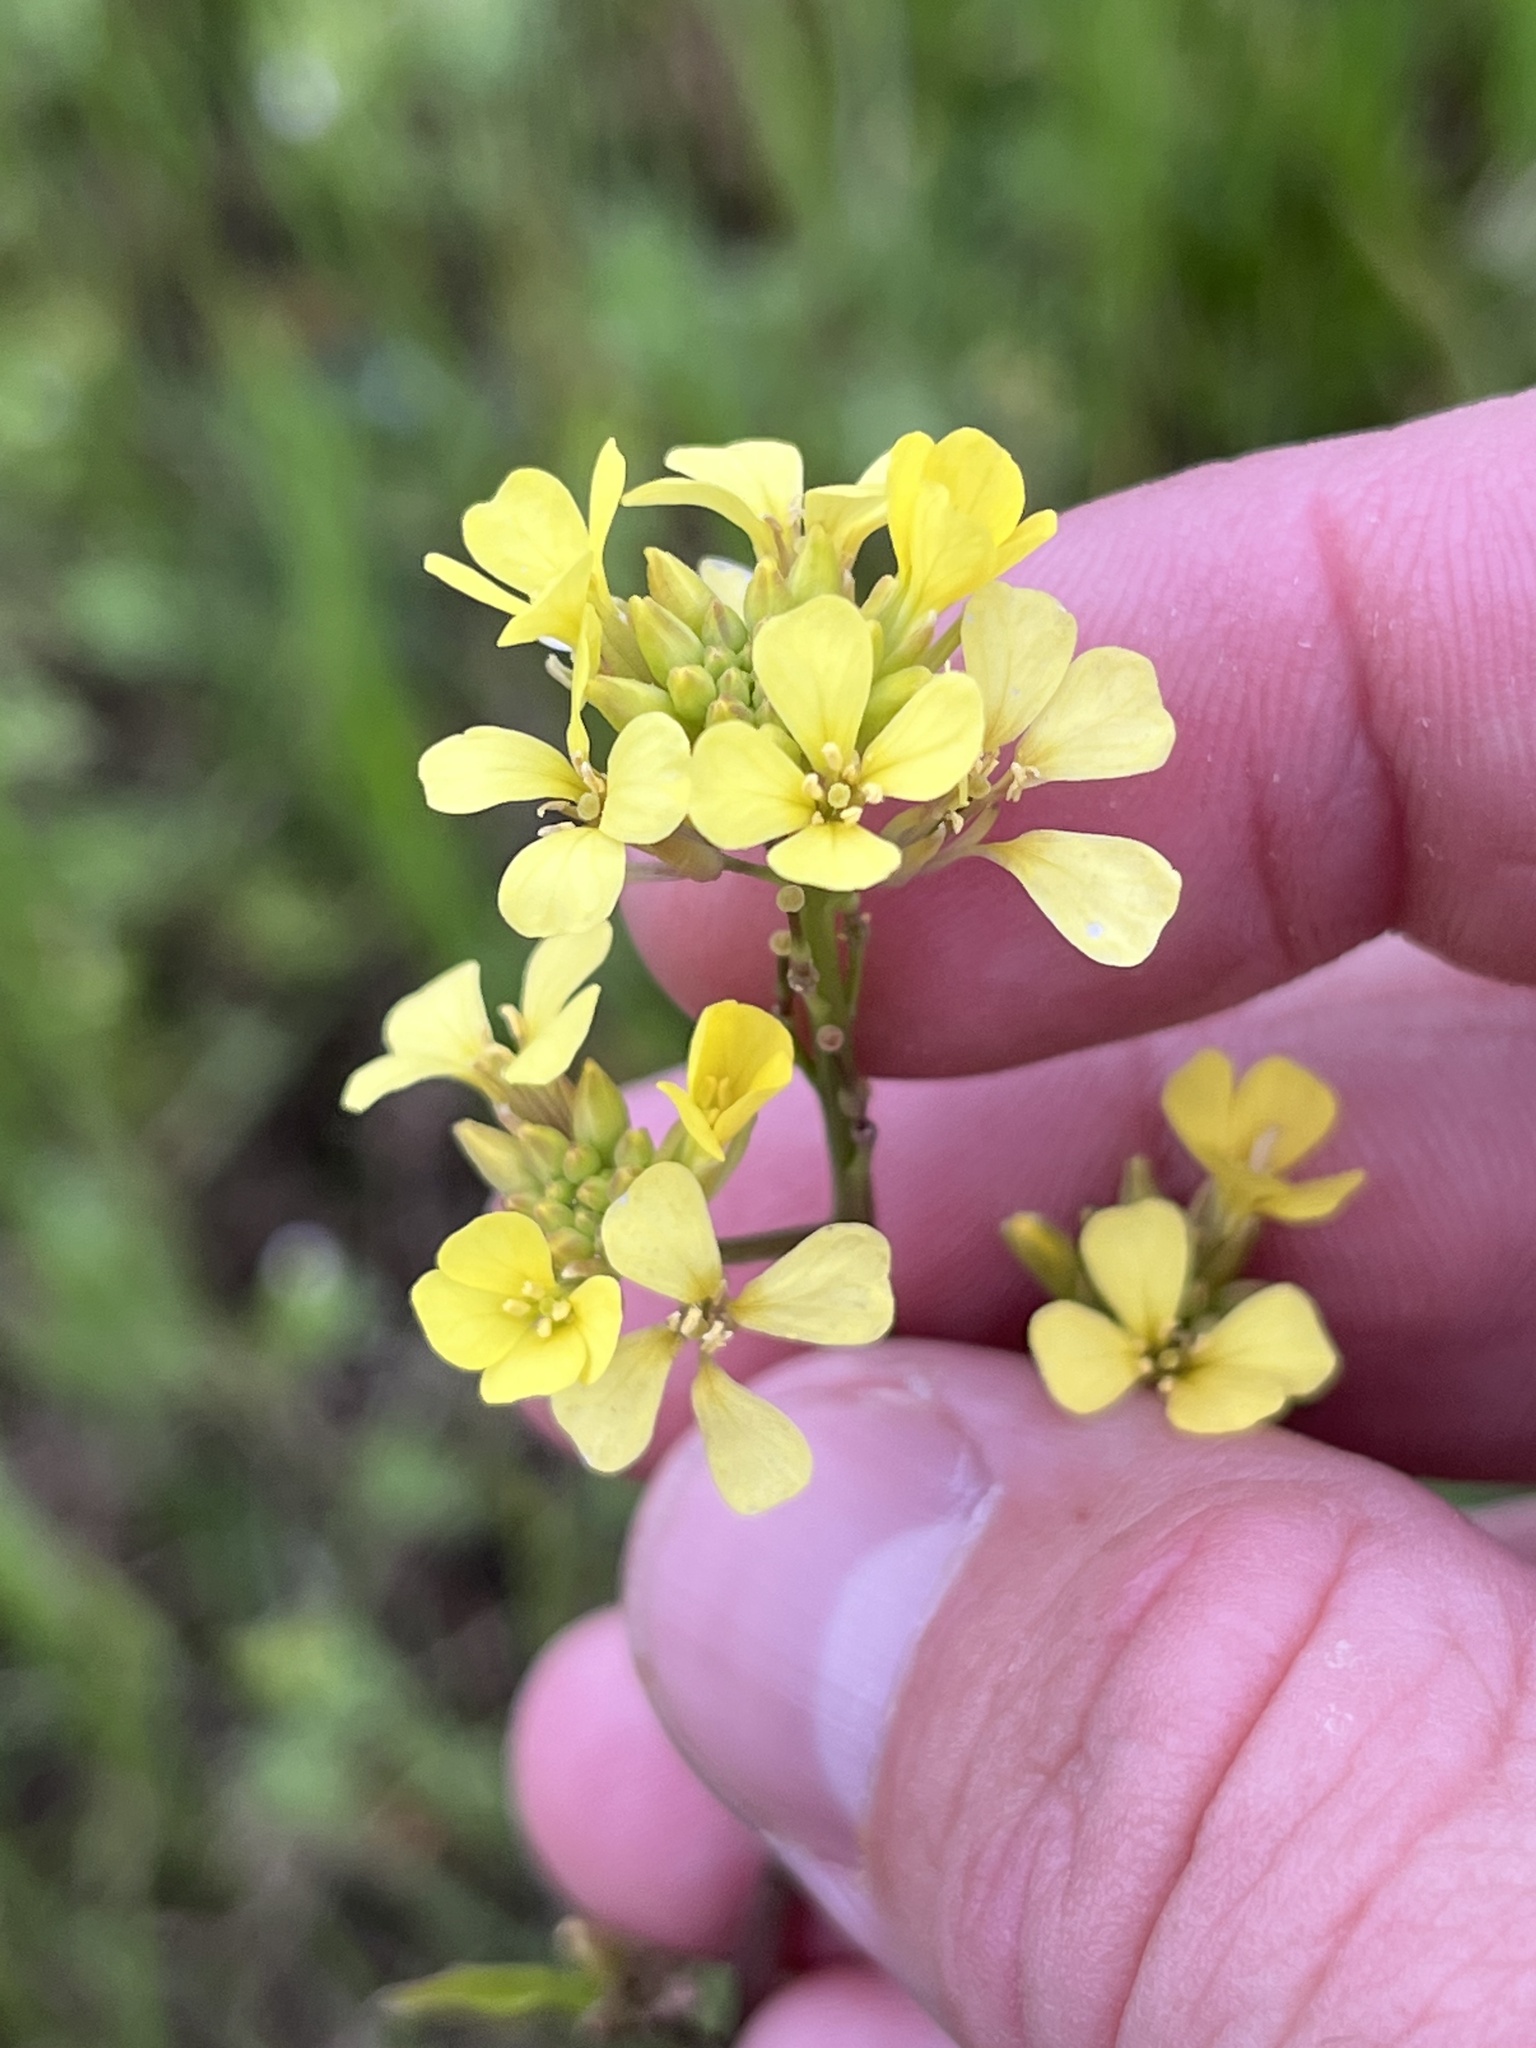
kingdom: Plantae
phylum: Tracheophyta
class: Magnoliopsida
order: Brassicales
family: Brassicaceae
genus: Rapistrum
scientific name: Rapistrum rugosum
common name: Annual bastardcabbage
